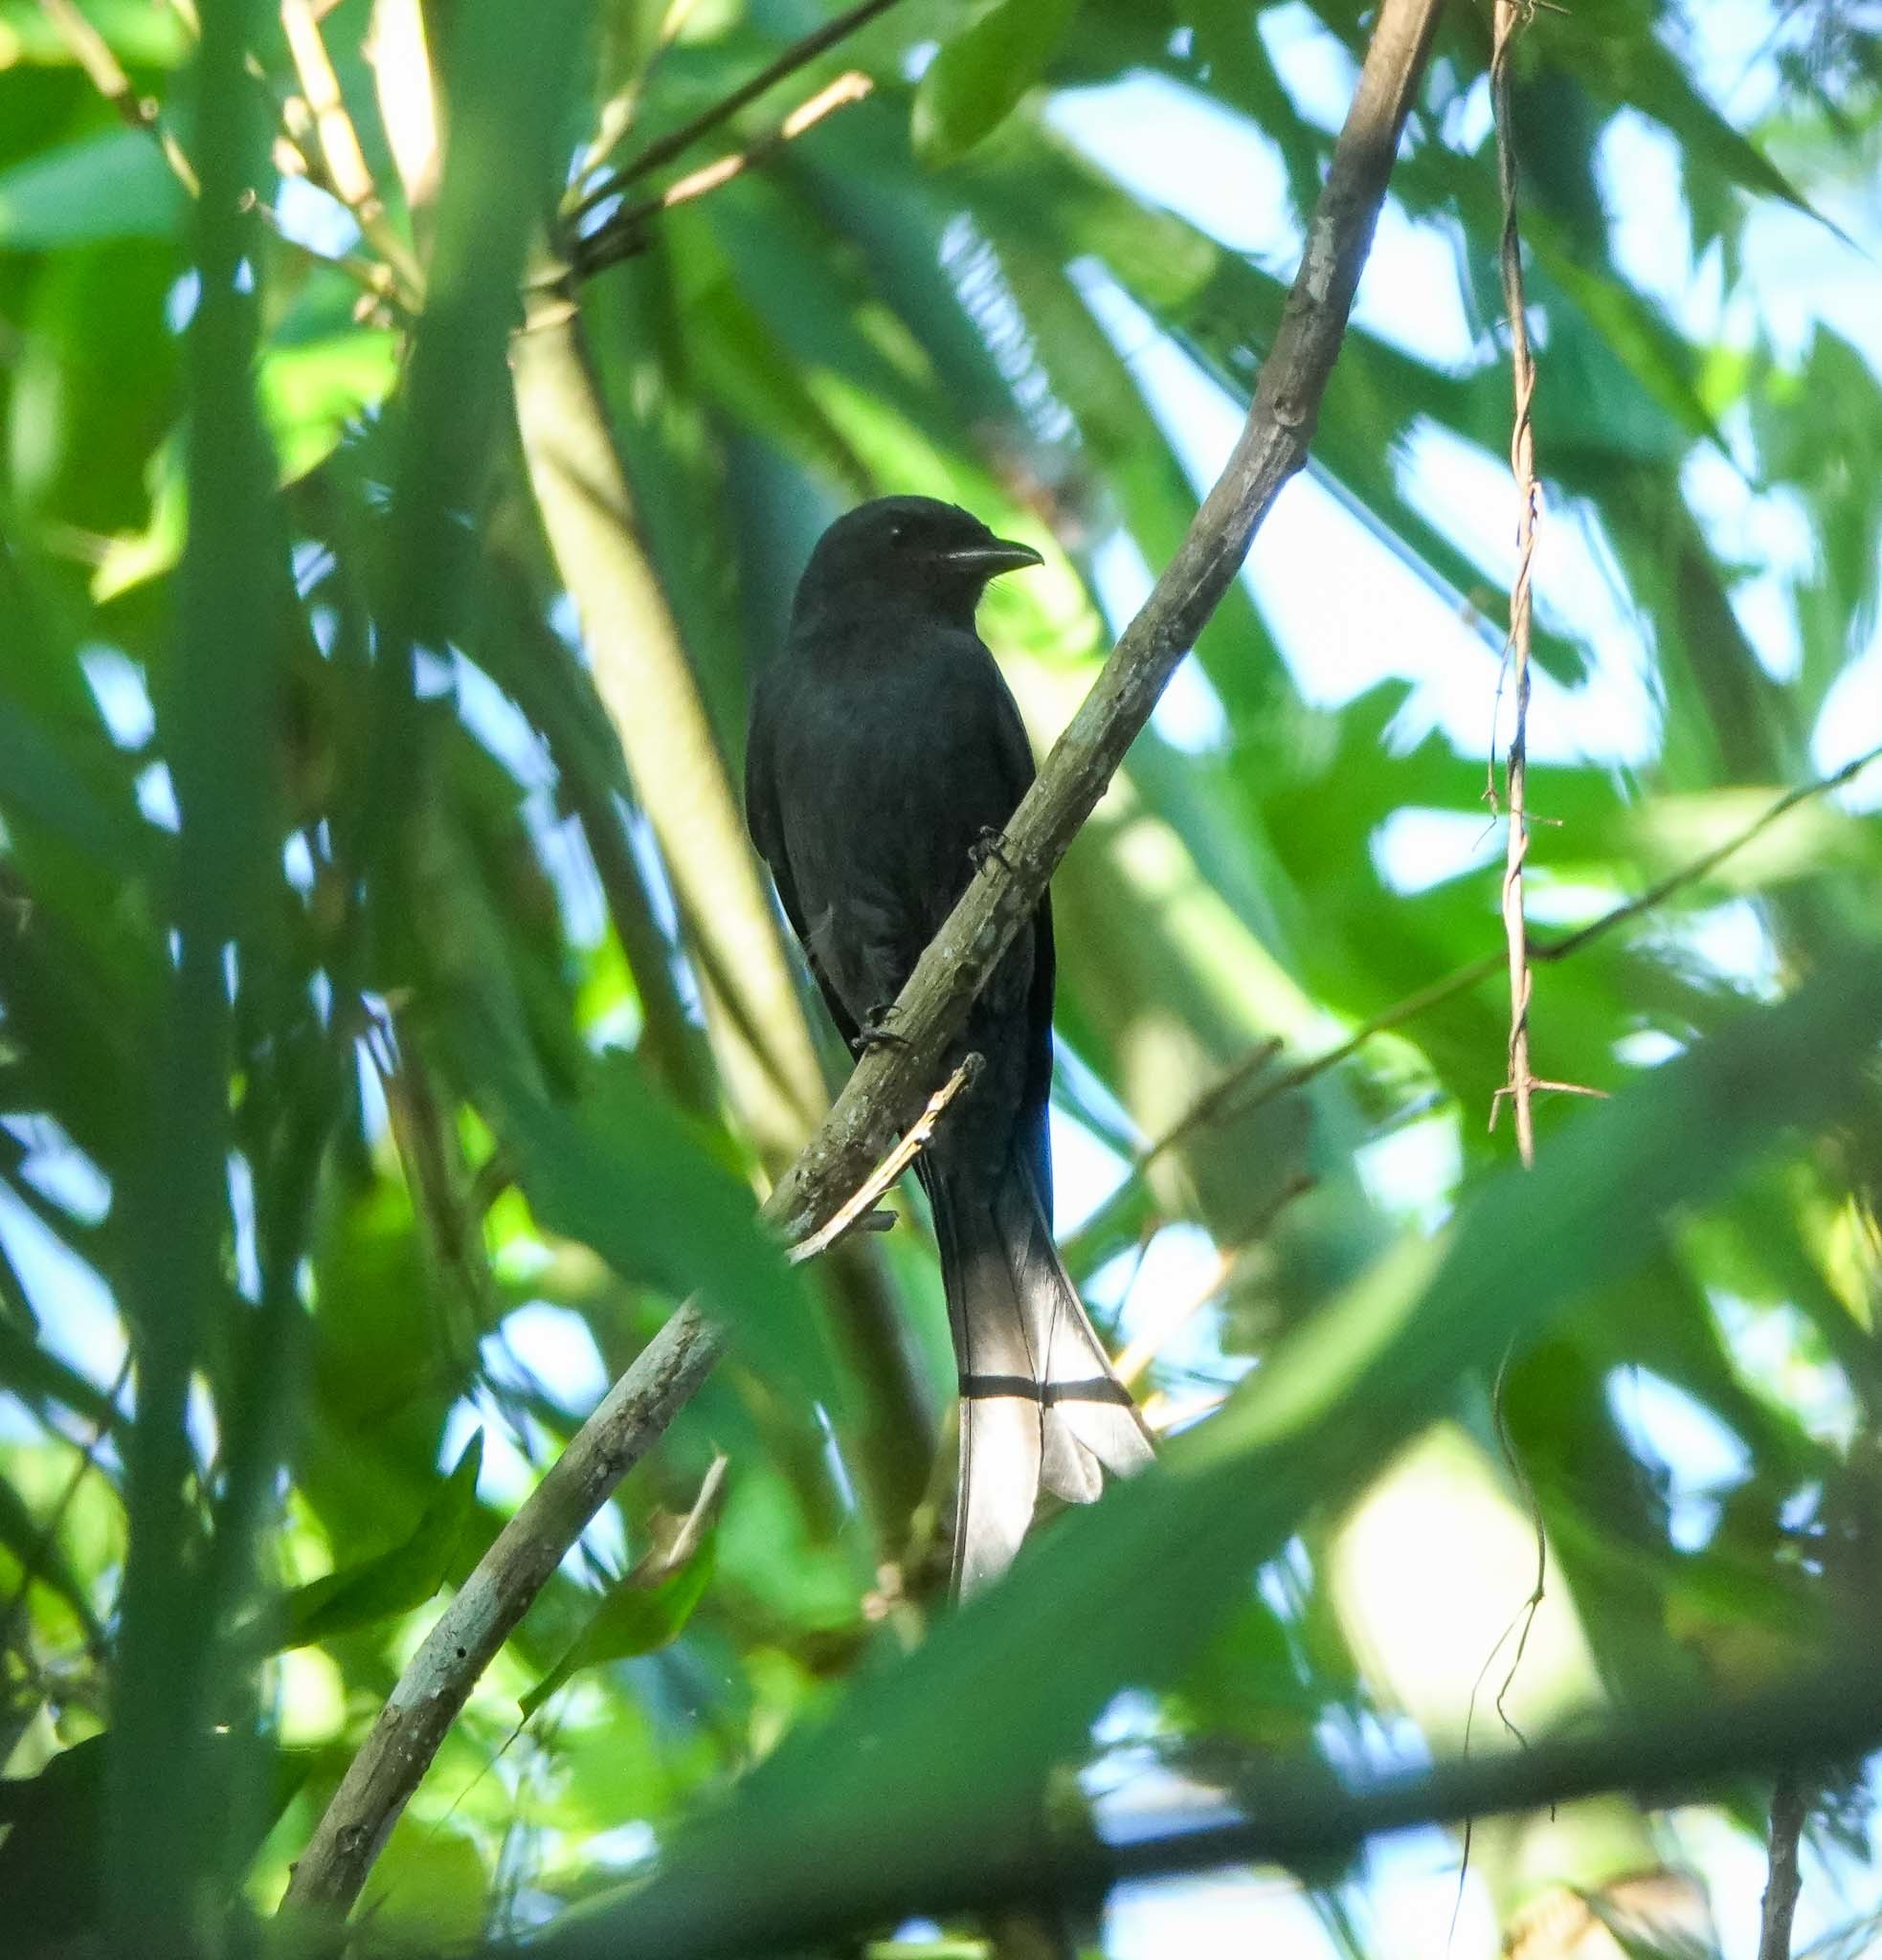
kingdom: Animalia
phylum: Chordata
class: Aves
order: Passeriformes
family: Dicruridae
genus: Dicrurus
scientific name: Dicrurus macrocercus
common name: Black drongo
